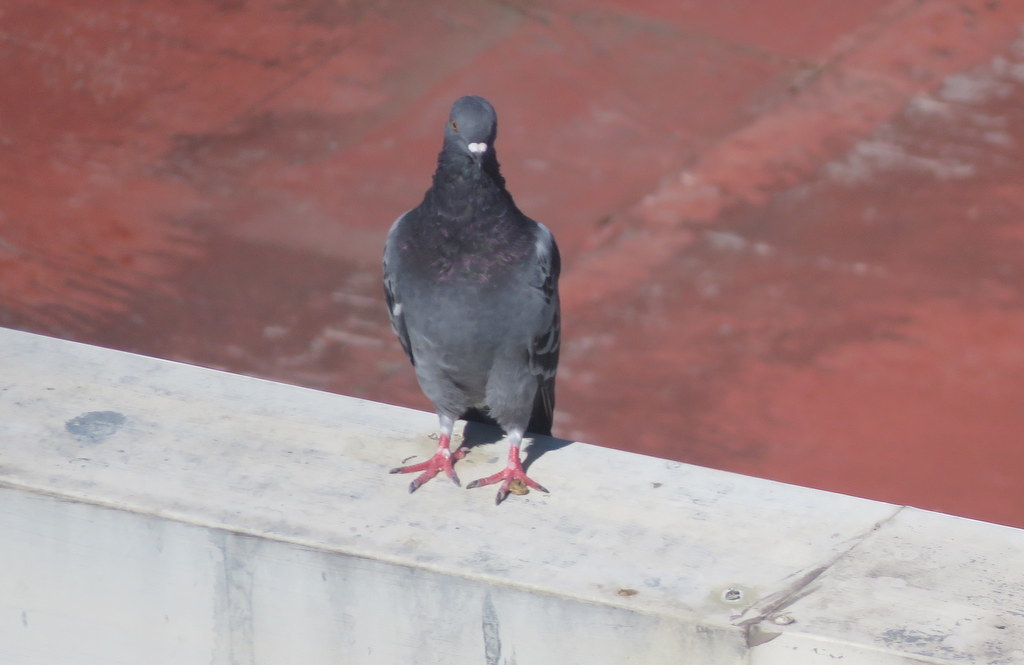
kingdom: Animalia
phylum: Chordata
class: Aves
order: Columbiformes
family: Columbidae
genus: Columba
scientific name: Columba livia
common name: Rock pigeon
